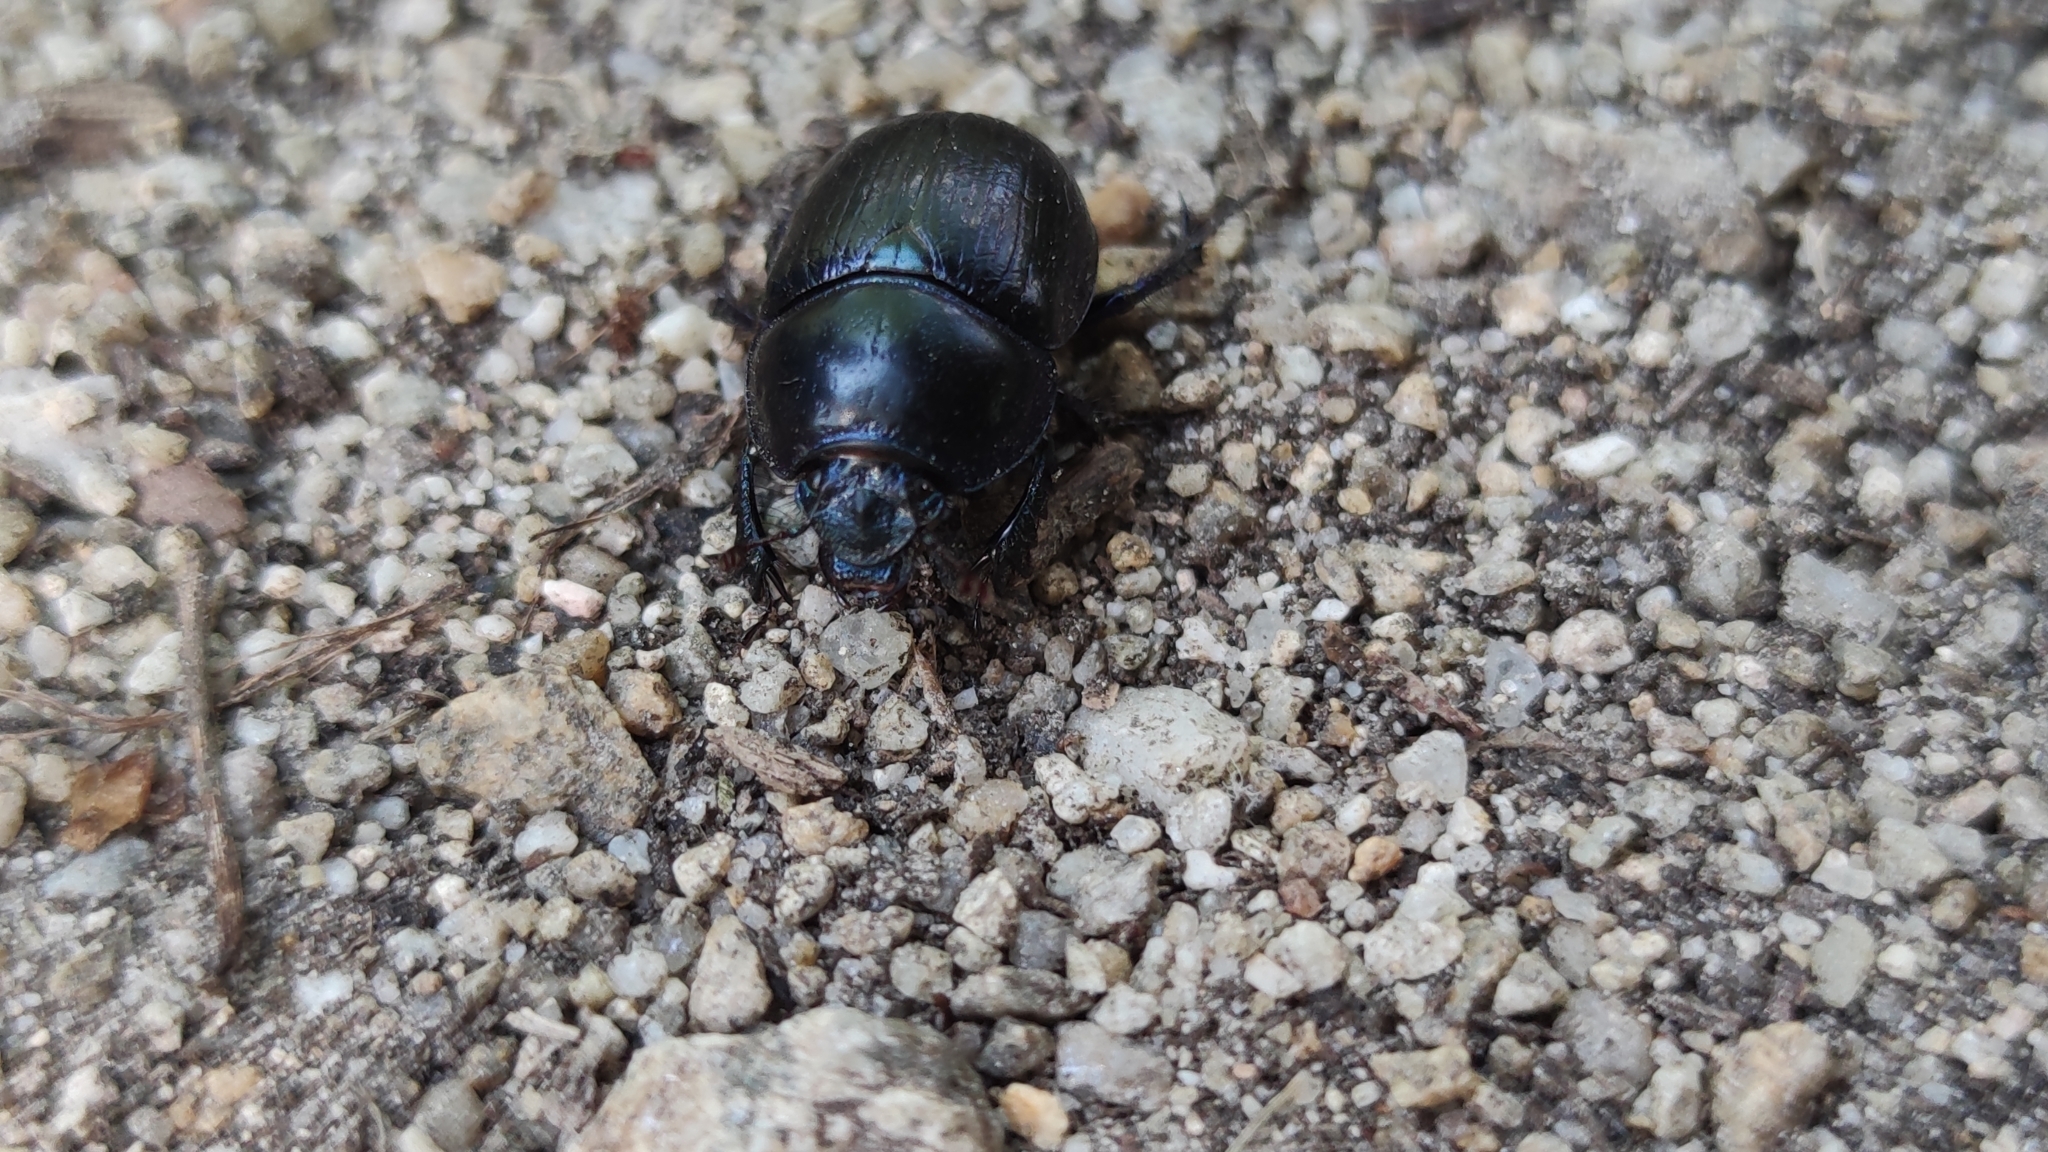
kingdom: Animalia
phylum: Arthropoda
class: Insecta
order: Coleoptera
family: Geotrupidae
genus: Anoplotrupes
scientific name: Anoplotrupes stercorosus
